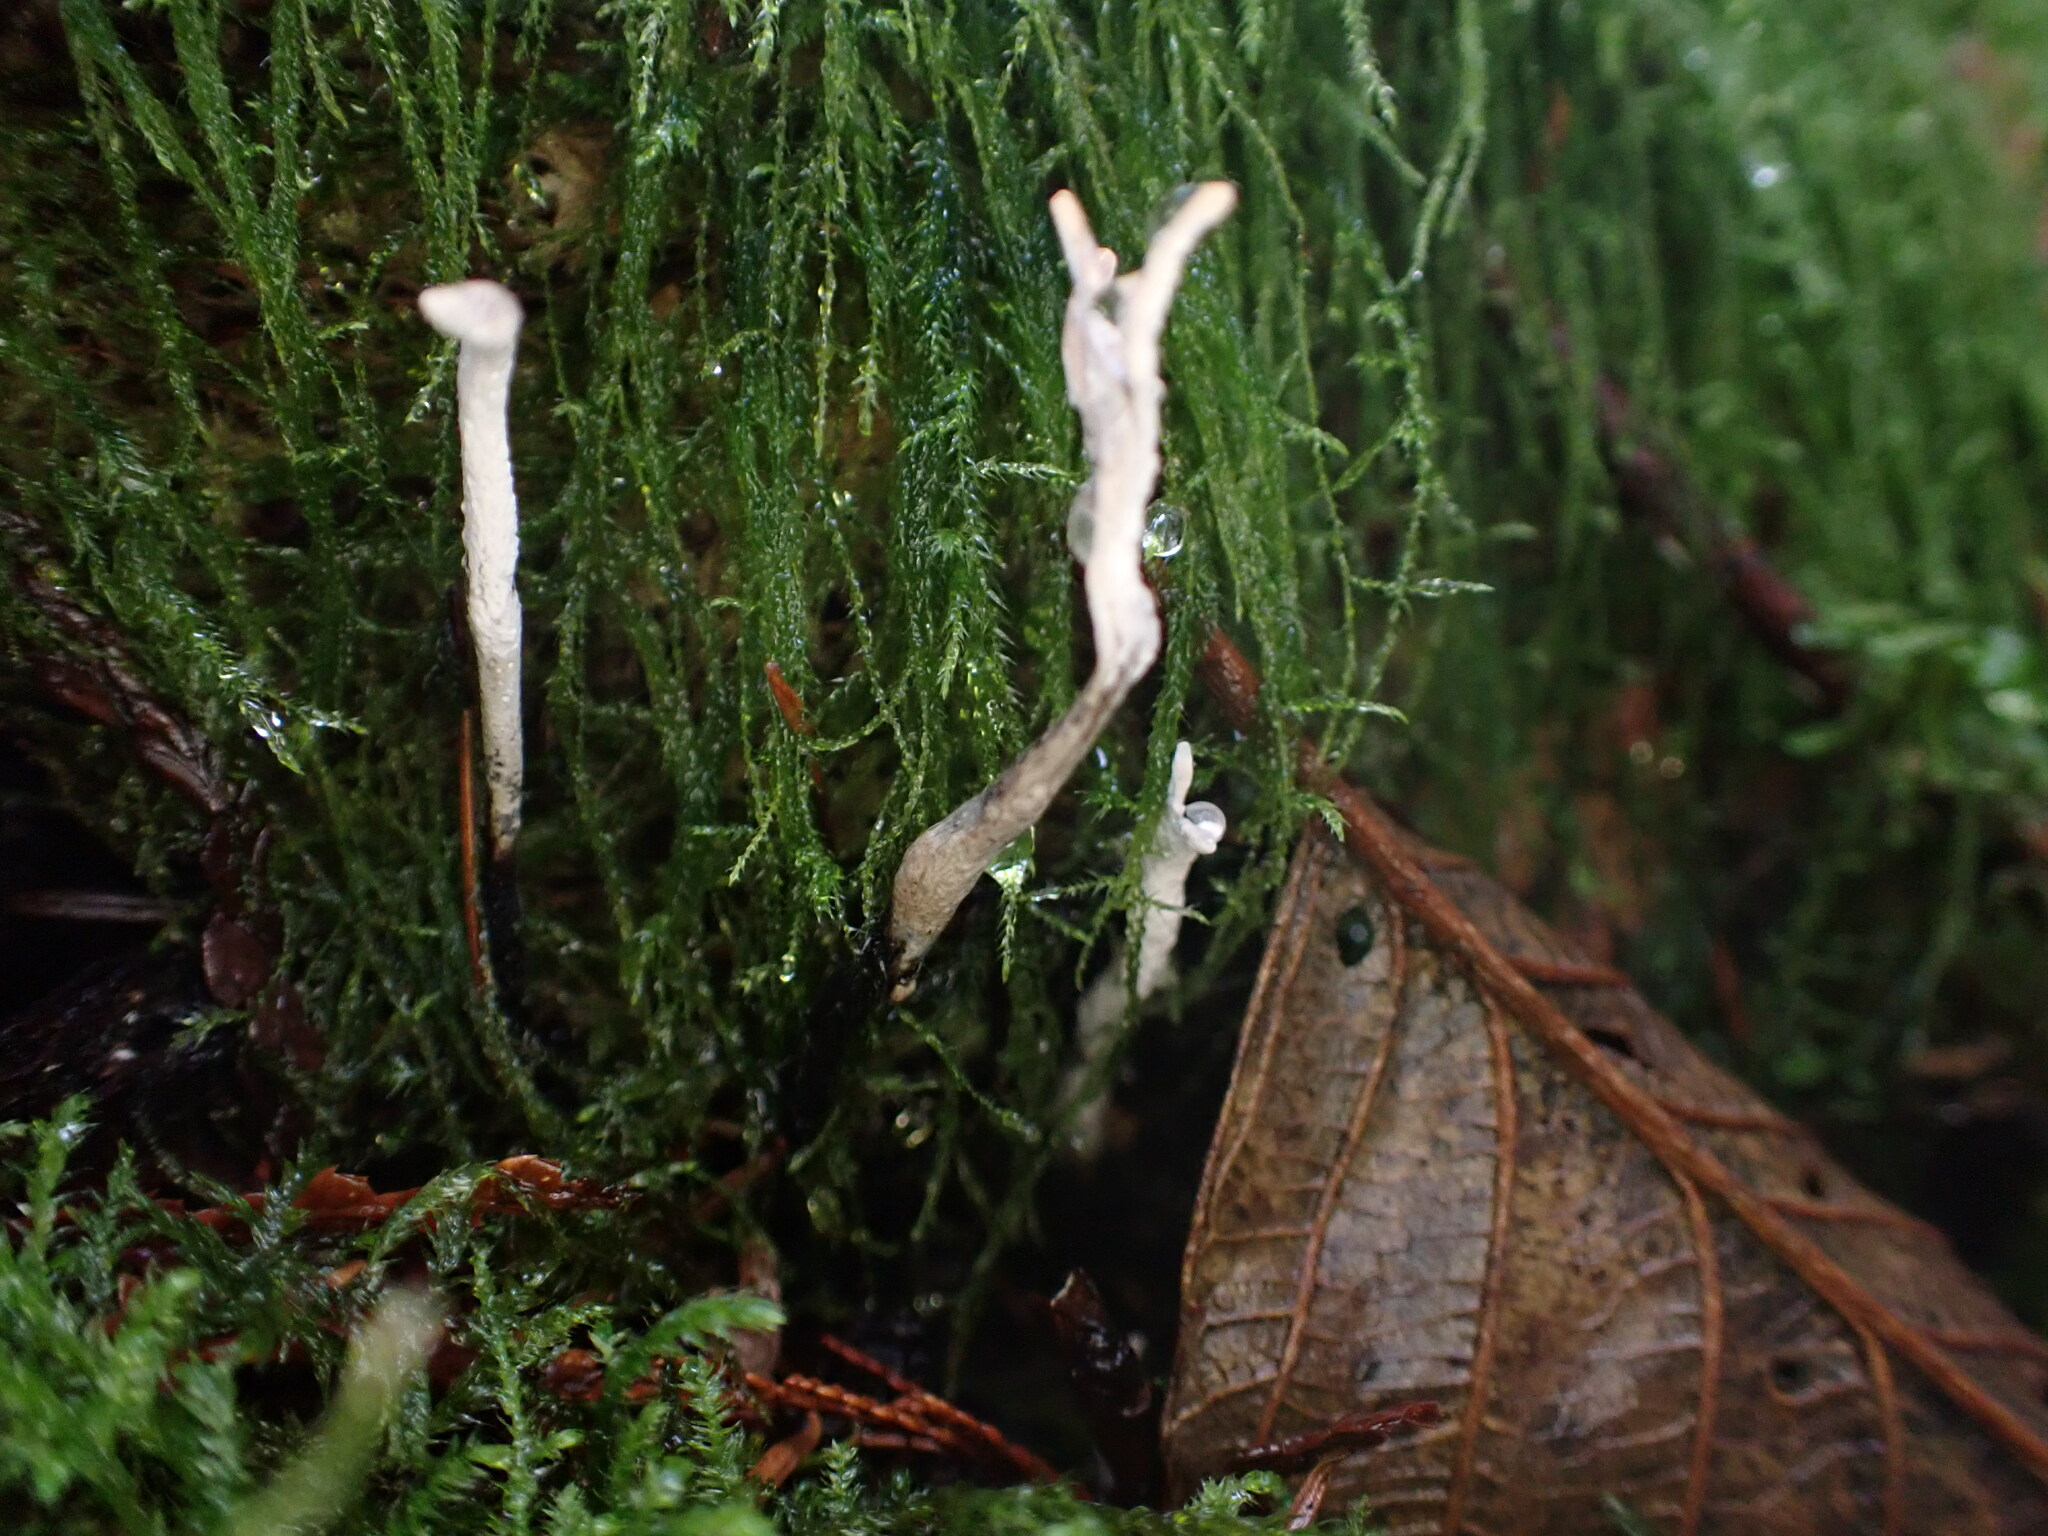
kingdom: Fungi
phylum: Ascomycota
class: Sordariomycetes
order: Xylariales
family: Xylariaceae
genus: Xylaria
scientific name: Xylaria hypoxylon
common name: Candle-snuff fungus
